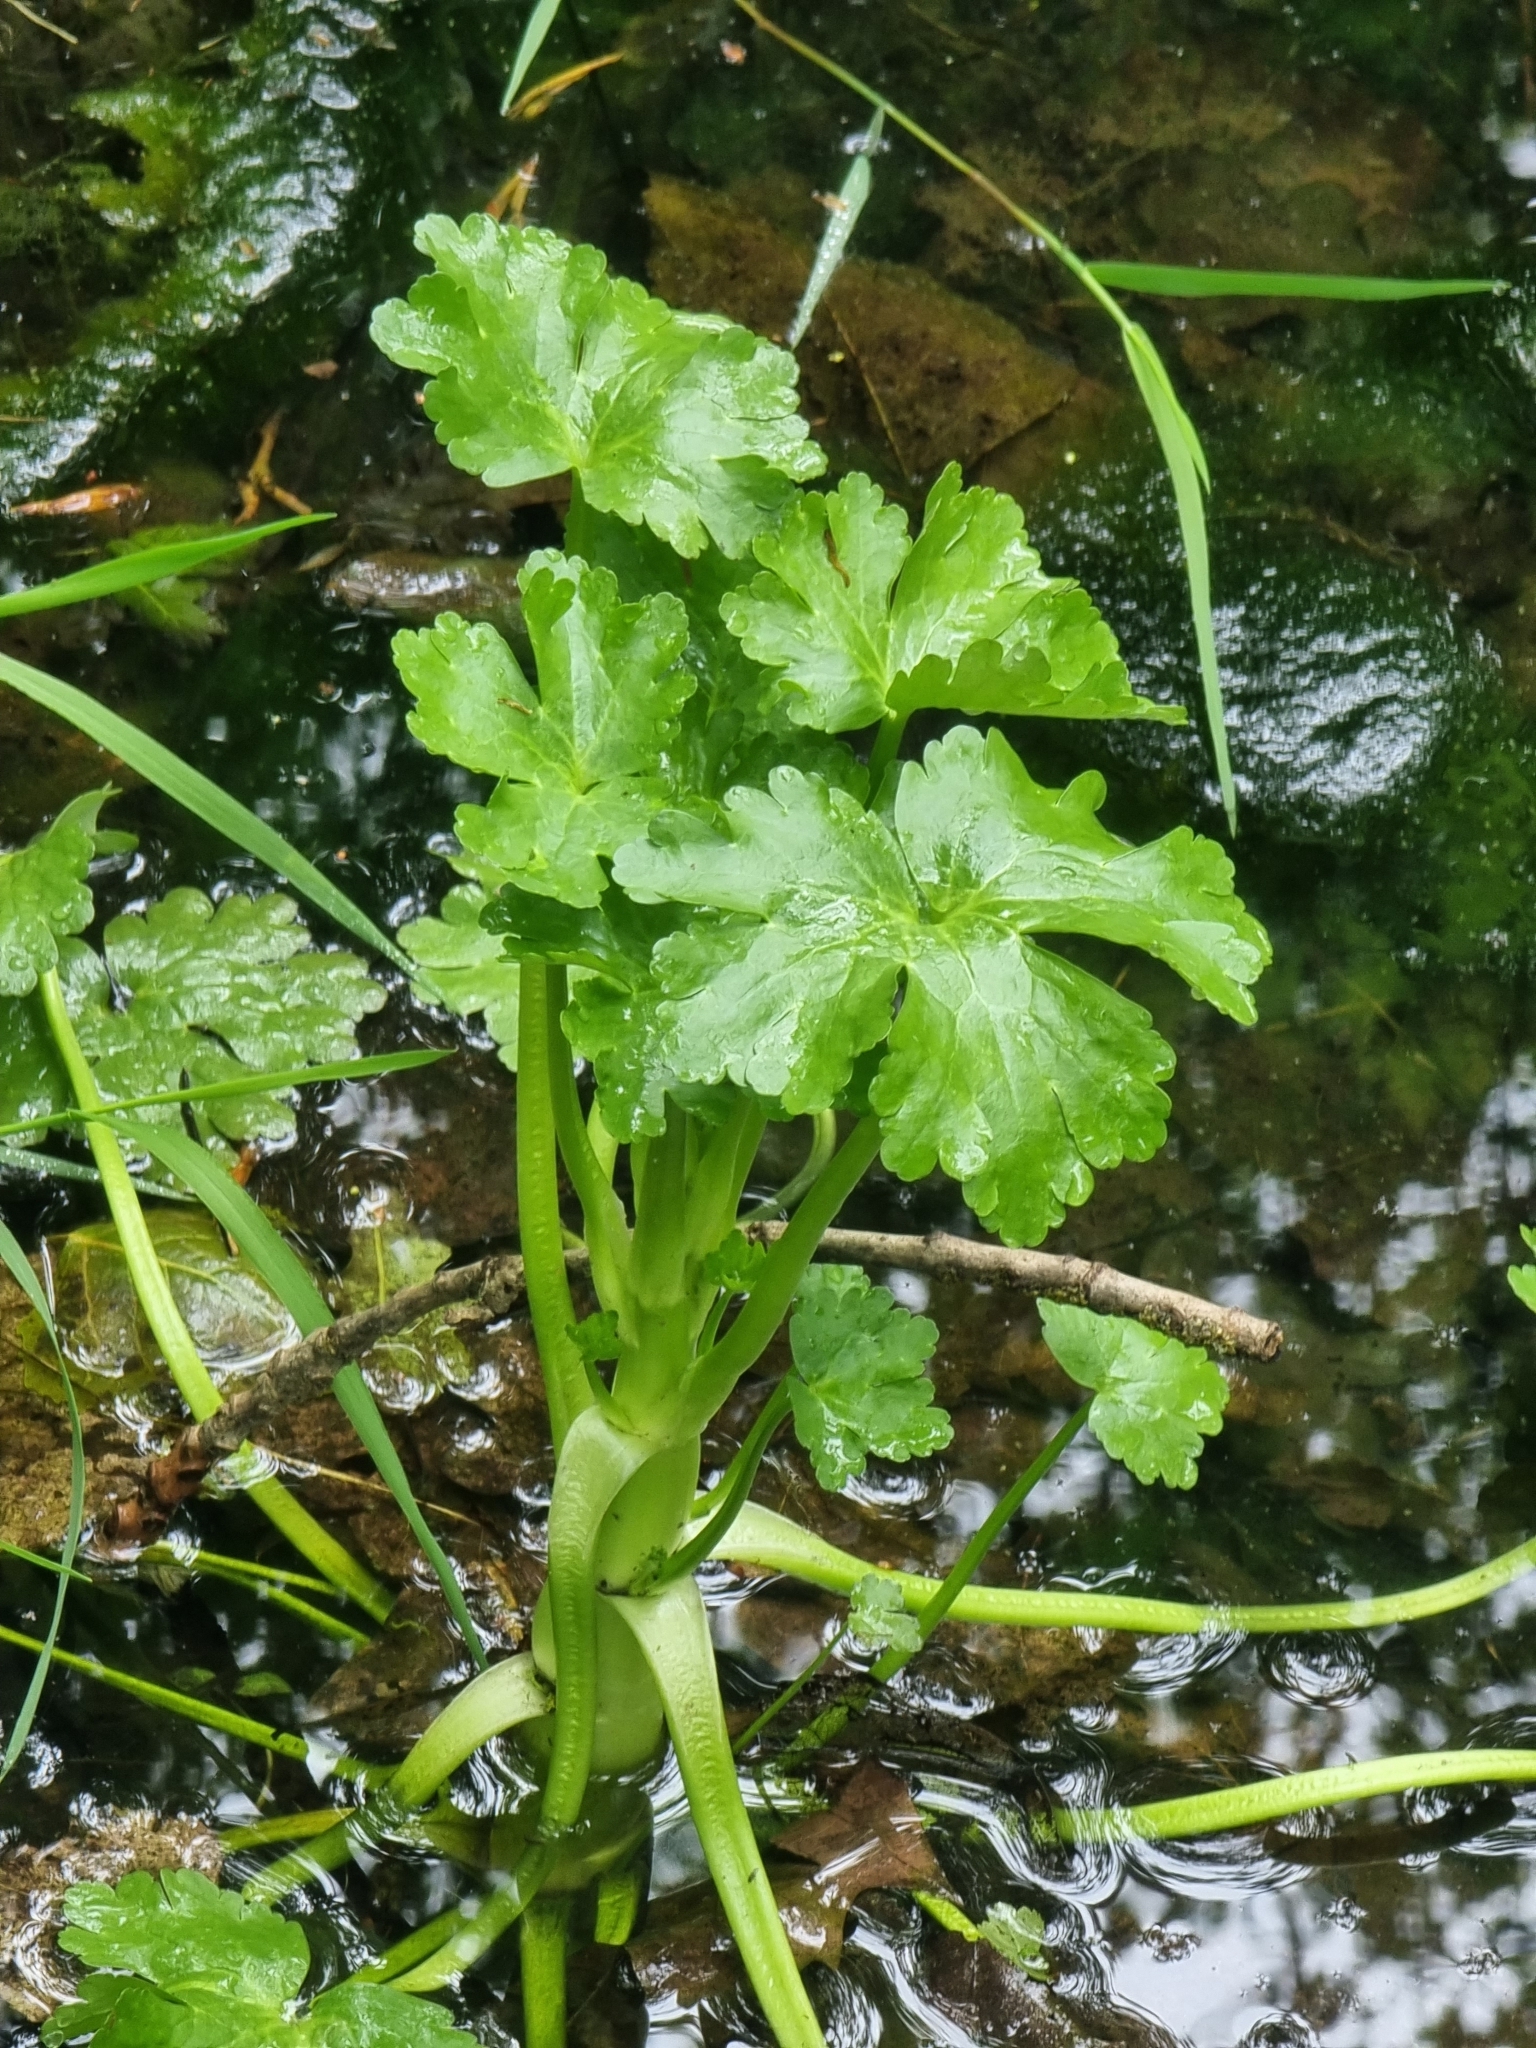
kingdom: Plantae
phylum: Tracheophyta
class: Magnoliopsida
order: Ranunculales
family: Ranunculaceae
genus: Ranunculus
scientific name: Ranunculus sceleratus
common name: Celery-leaved buttercup
